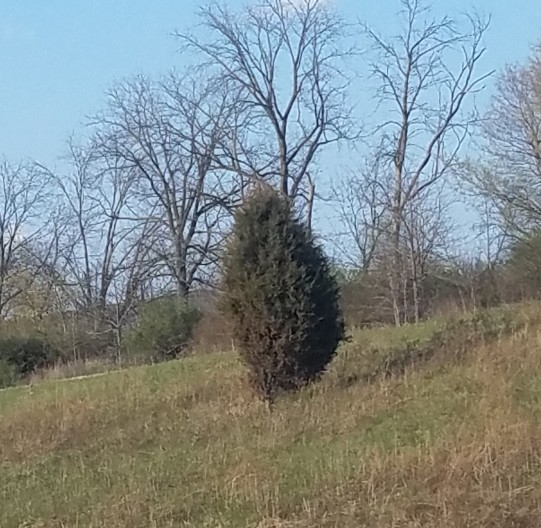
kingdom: Plantae
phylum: Tracheophyta
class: Pinopsida
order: Pinales
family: Cupressaceae
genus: Juniperus
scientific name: Juniperus virginiana
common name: Red juniper
